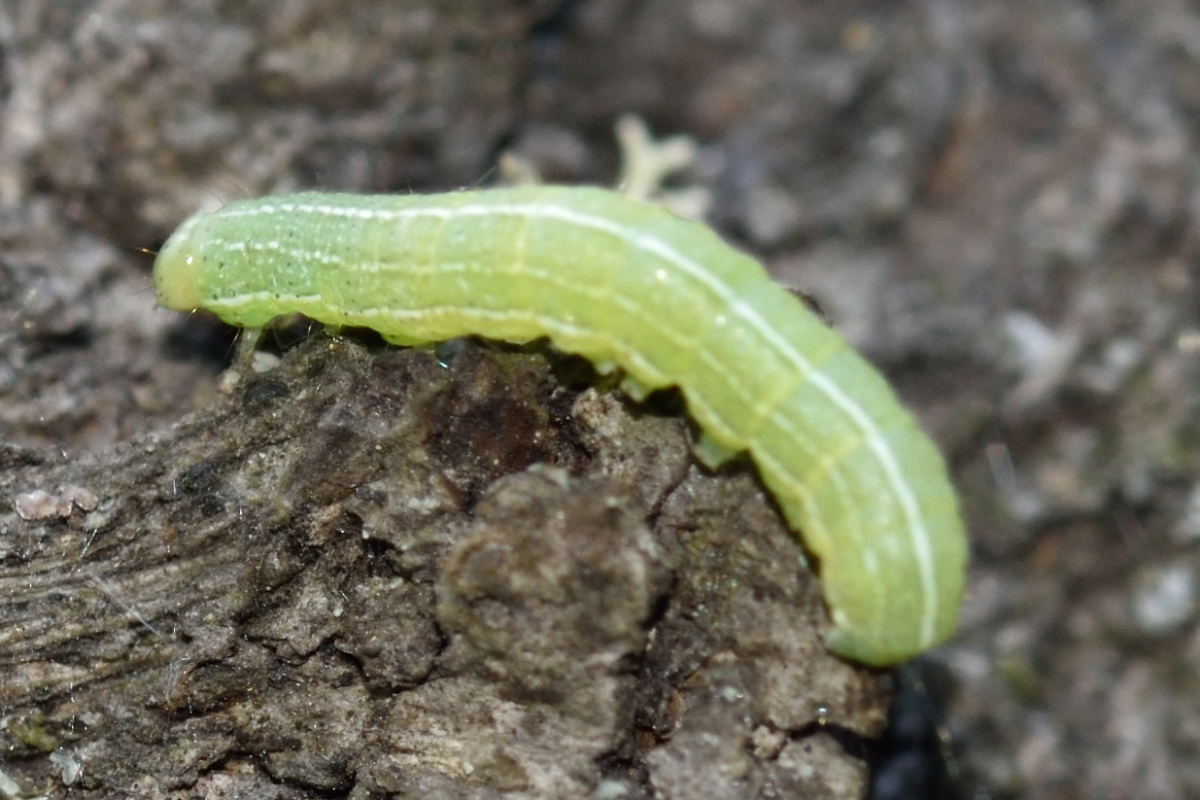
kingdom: Animalia
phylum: Arthropoda
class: Insecta
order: Lepidoptera
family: Noctuidae
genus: Orthosia
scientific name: Orthosia cerasi
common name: Common quaker
